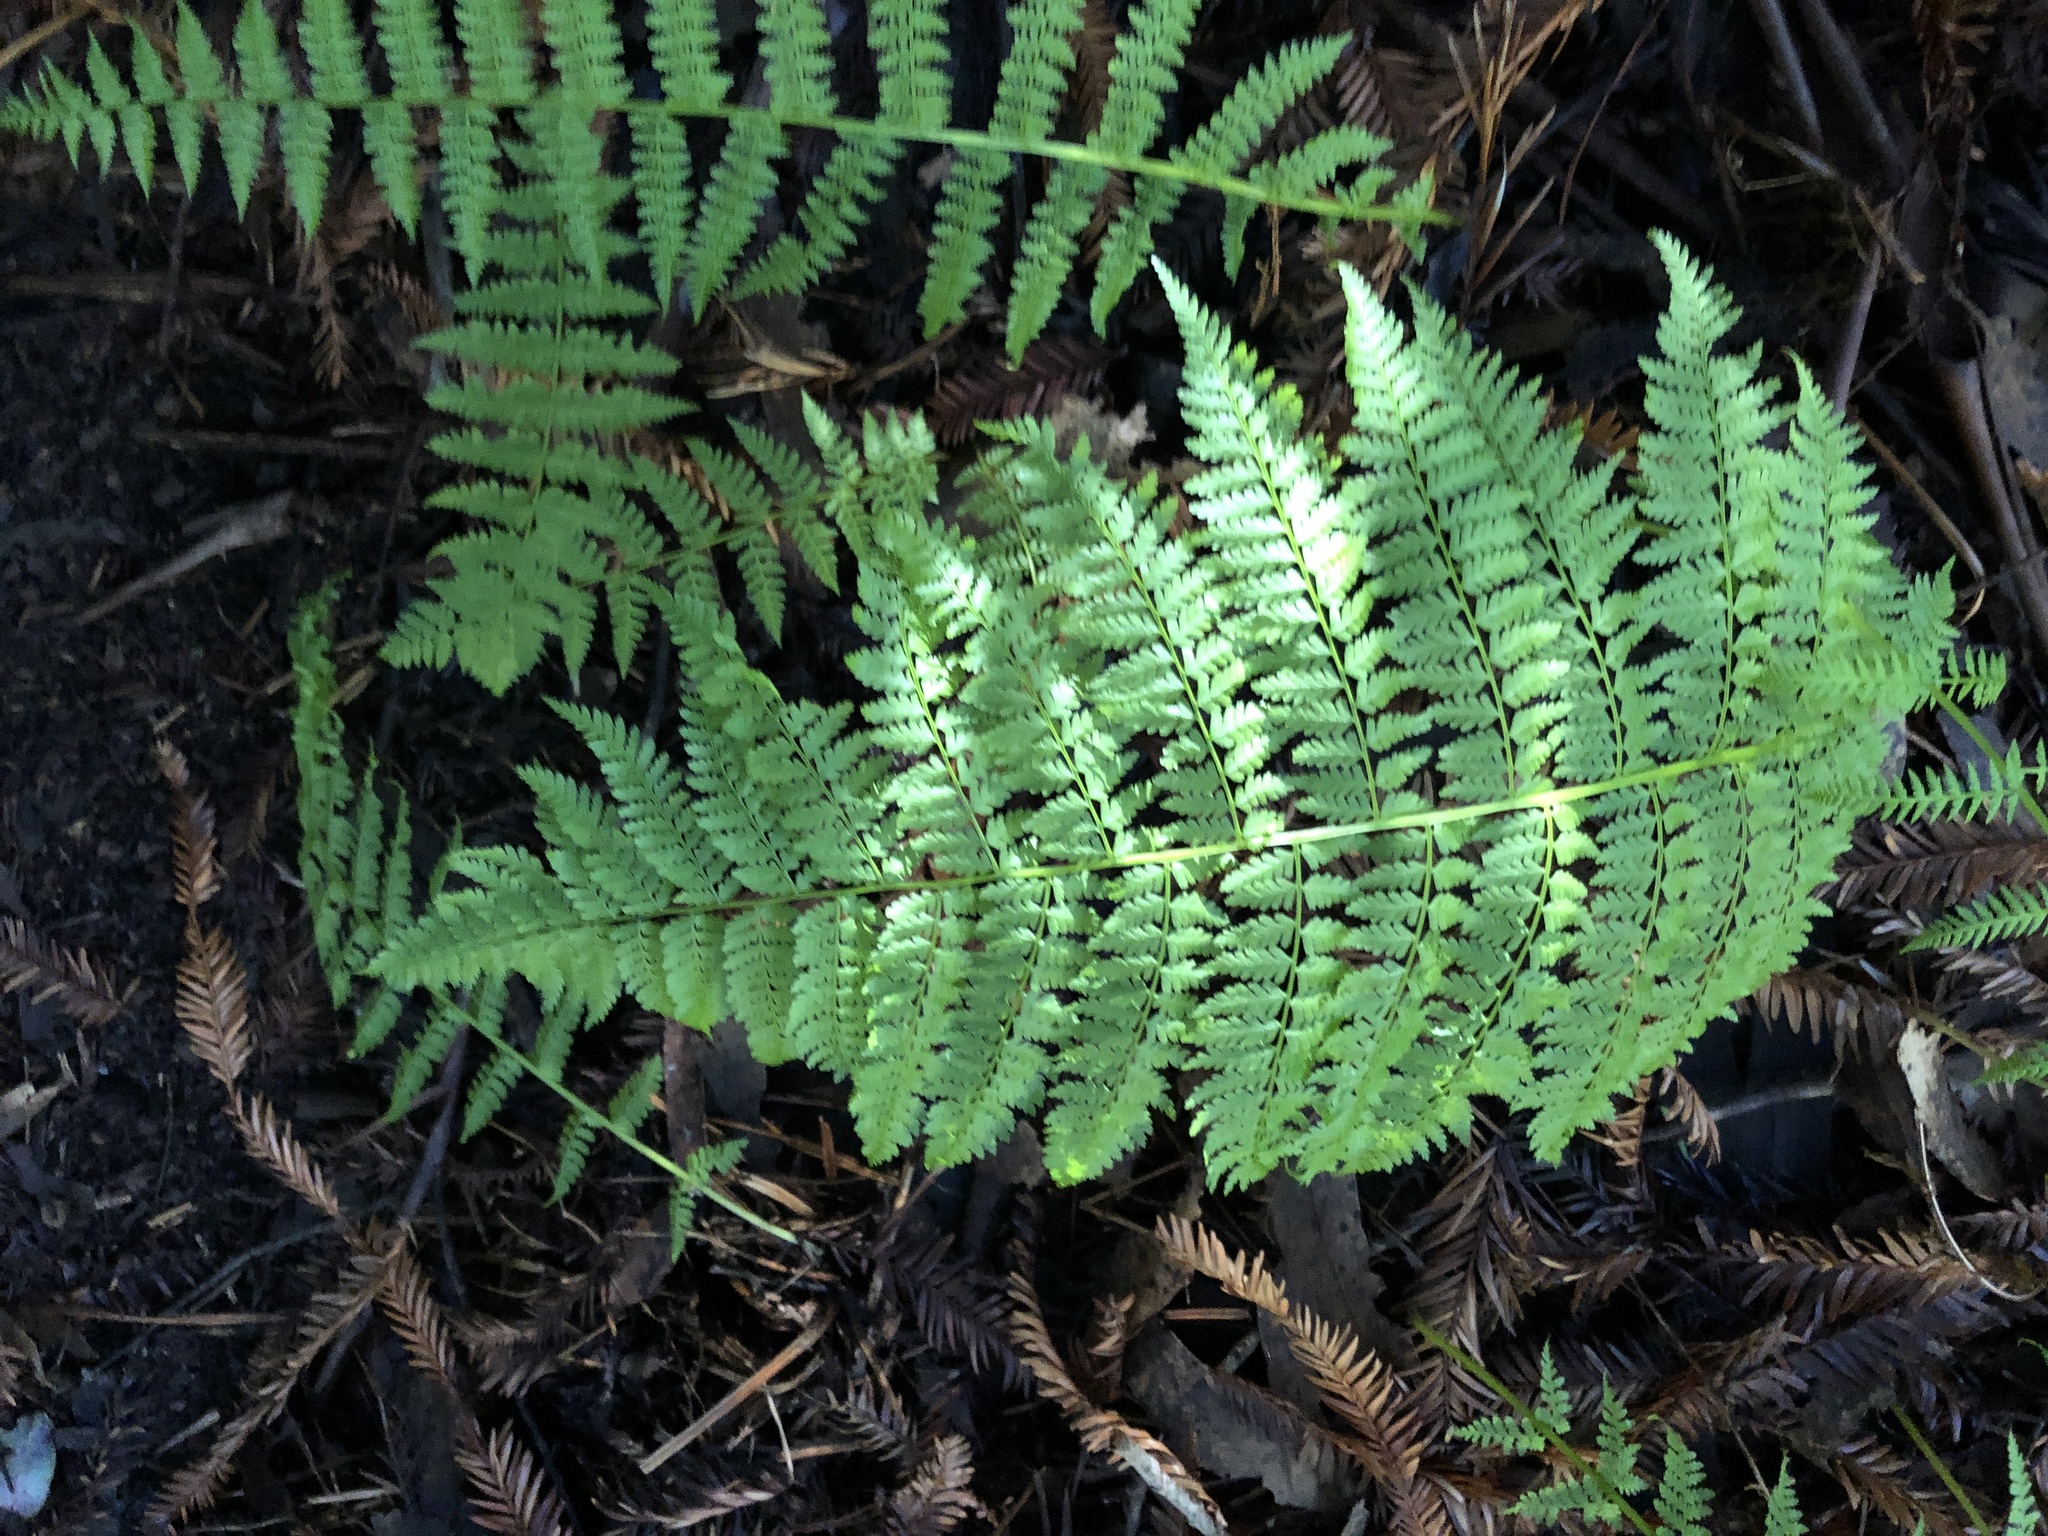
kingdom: Plantae
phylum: Tracheophyta
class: Polypodiopsida
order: Polypodiales
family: Athyriaceae
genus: Athyrium
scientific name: Athyrium filix-femina
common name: Lady fern
